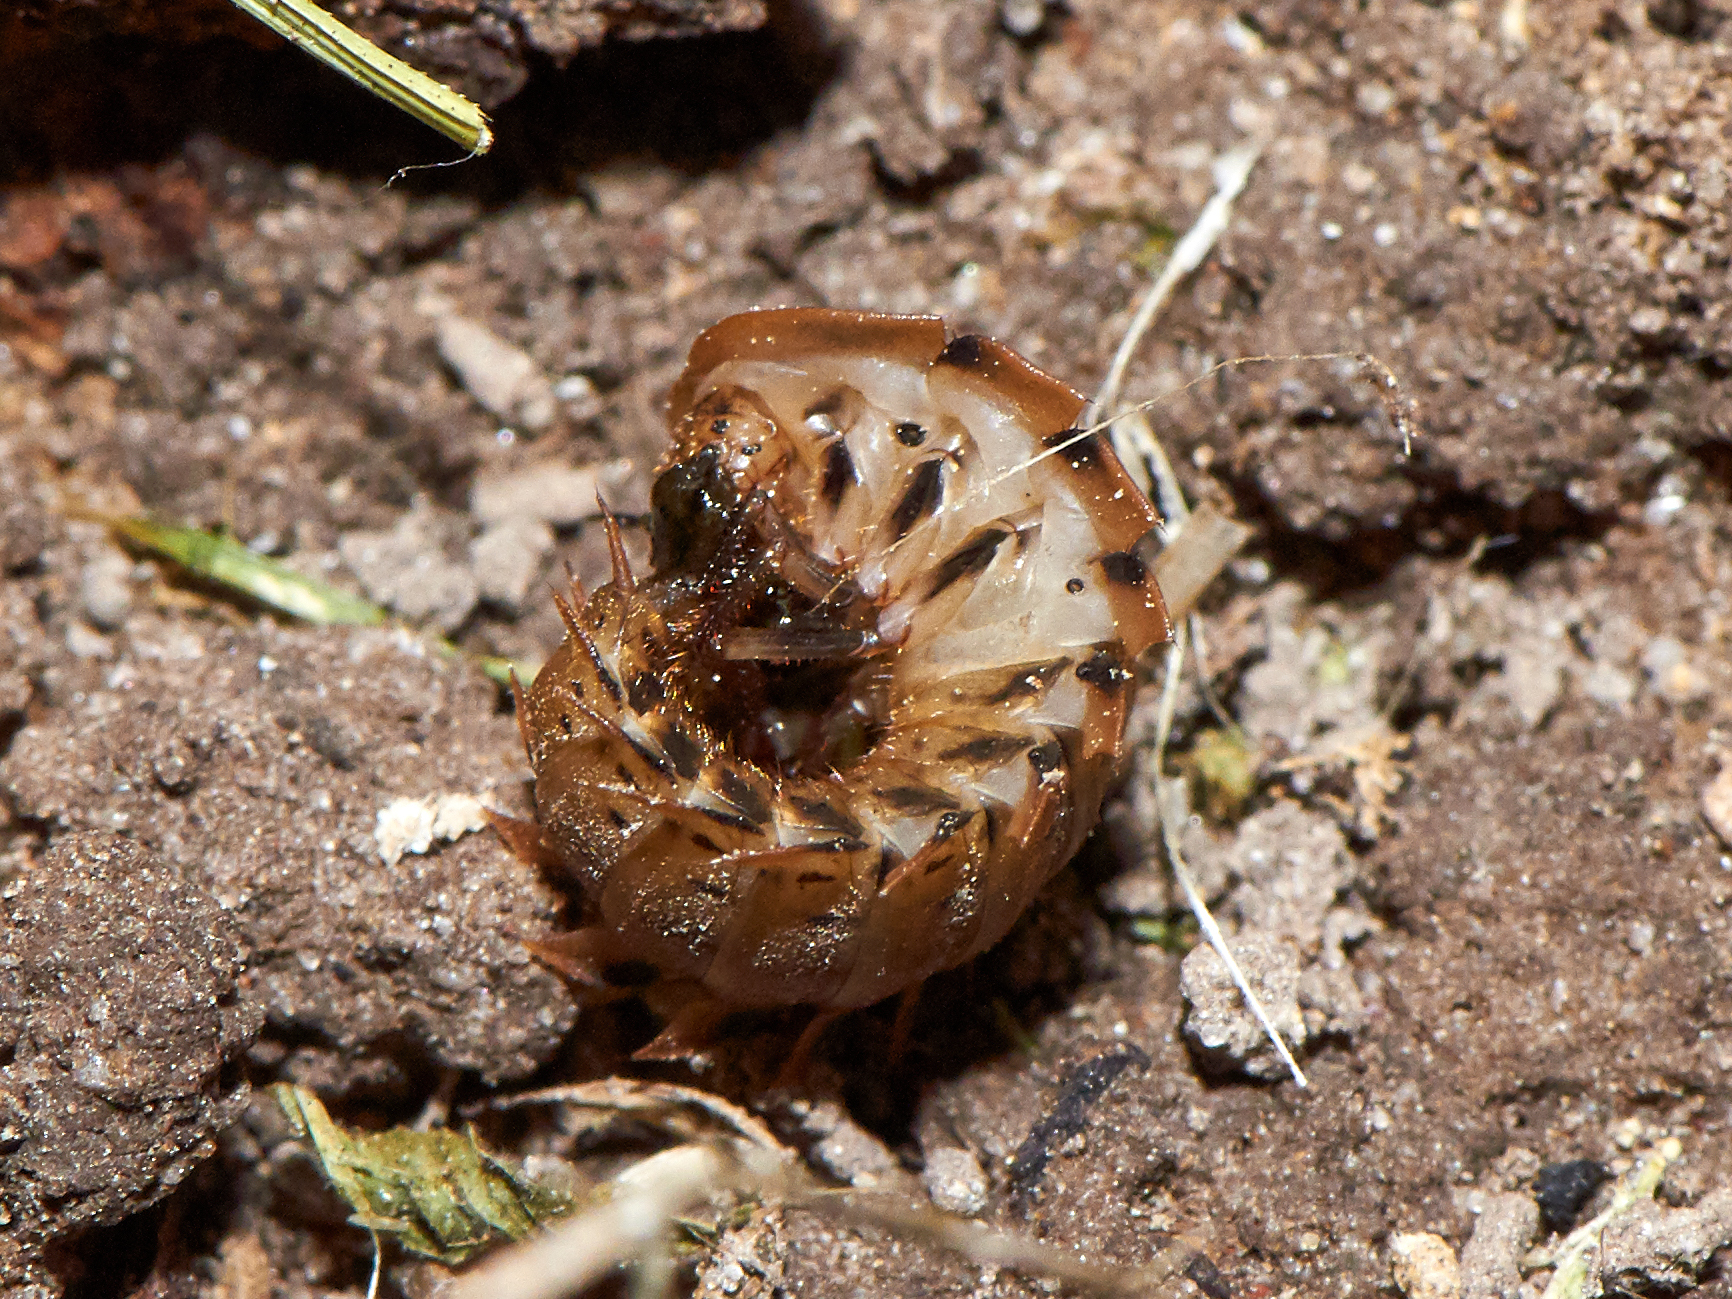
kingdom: Animalia
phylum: Arthropoda
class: Insecta
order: Coleoptera
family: Staphylinidae
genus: Silpha
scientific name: Silpha obscura
